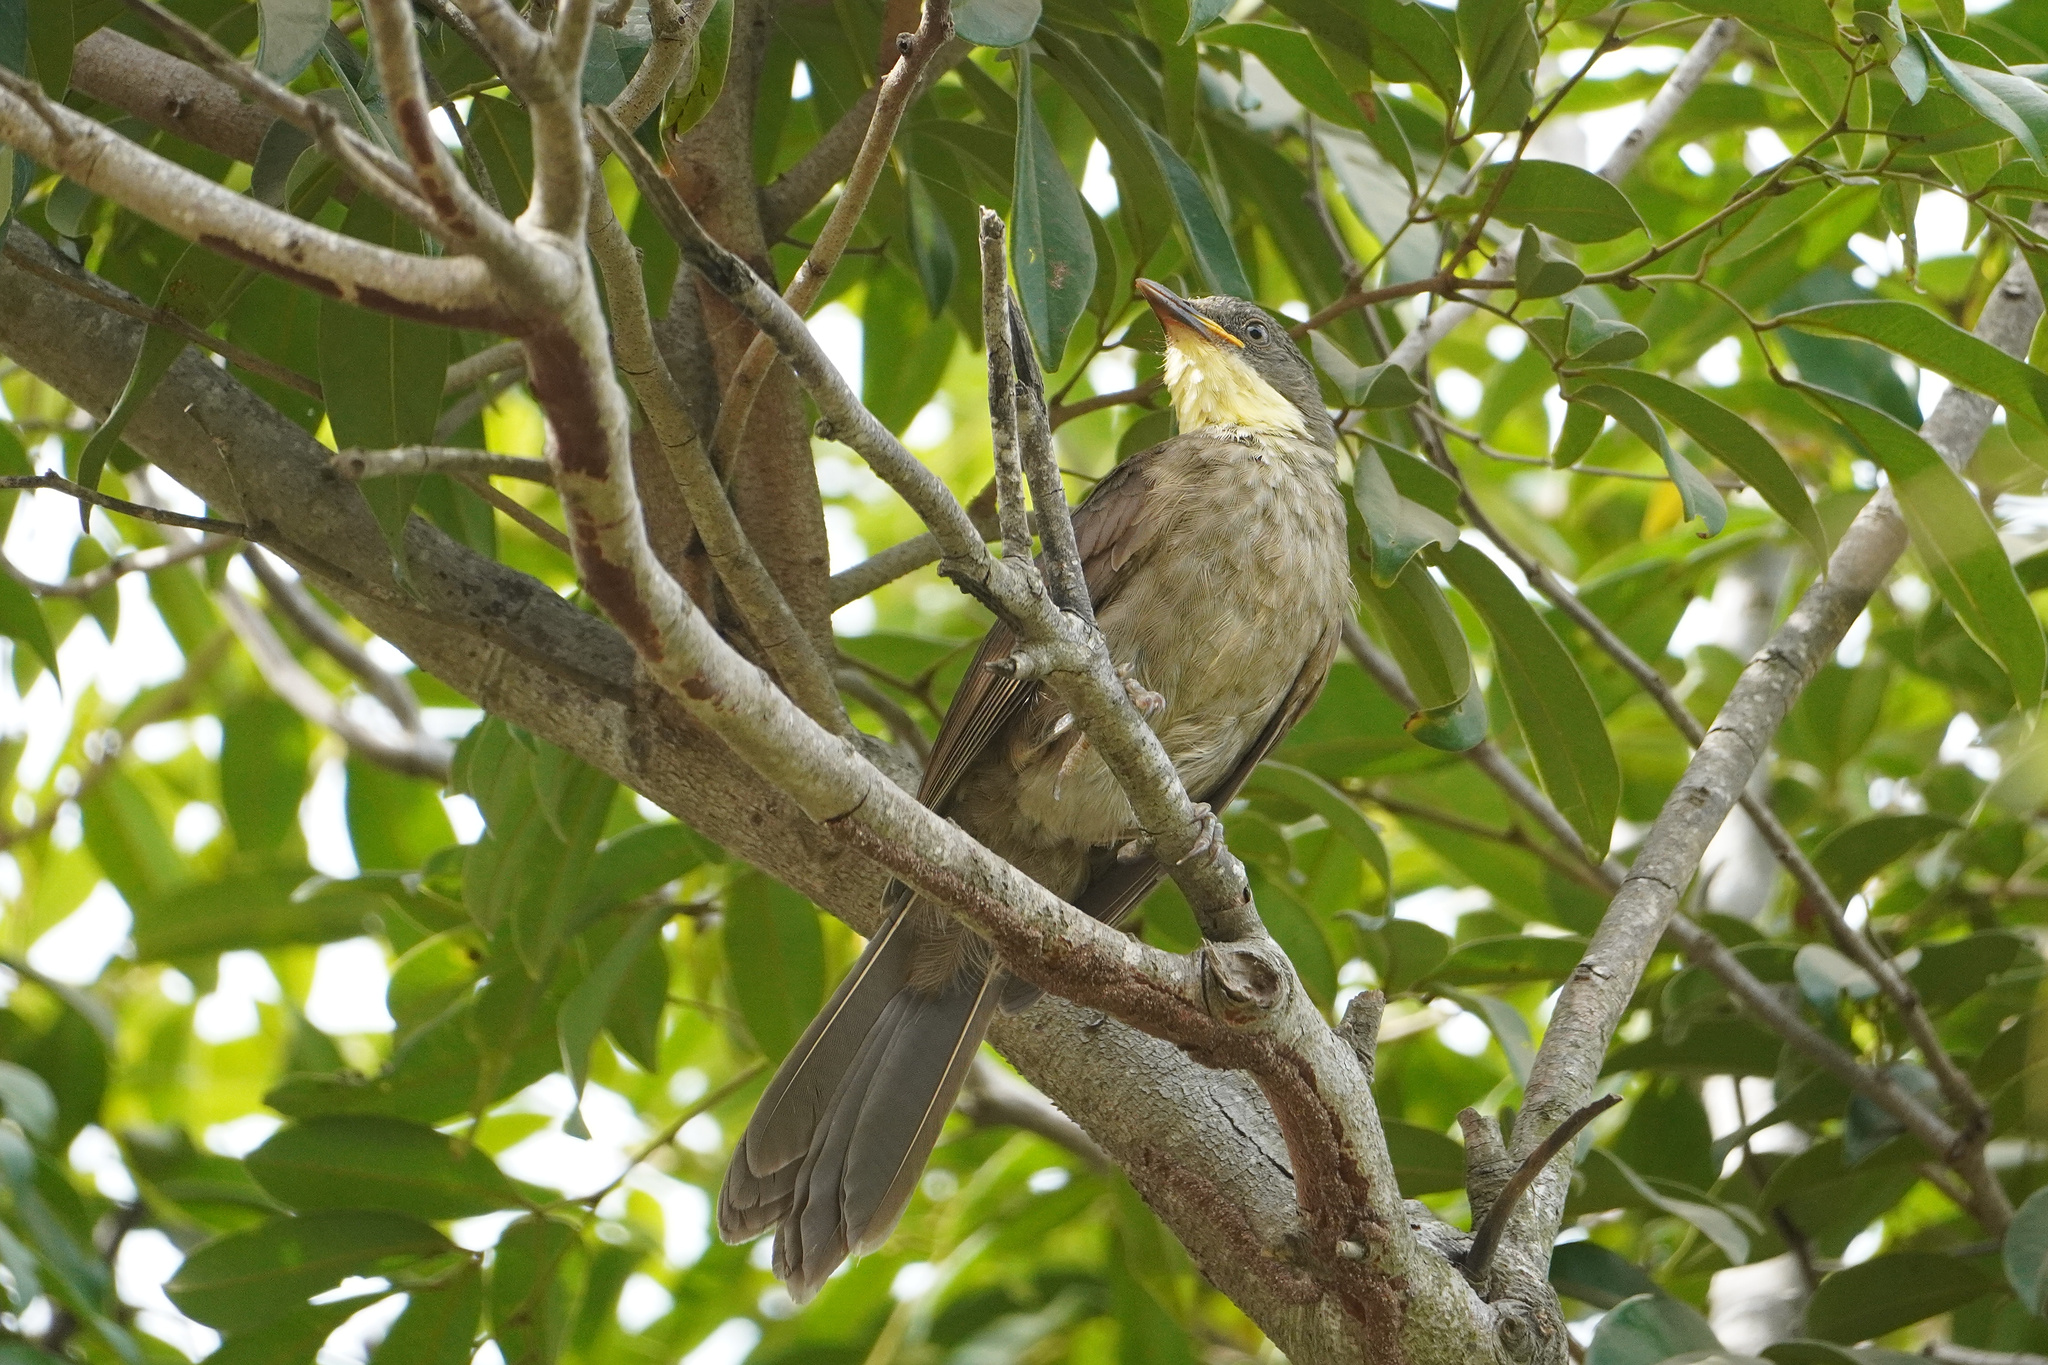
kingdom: Animalia
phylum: Chordata
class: Aves
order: Passeriformes
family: Pycnonotidae
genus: Atimastillas
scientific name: Atimastillas flavicollis
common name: Yellow-throated leaflove
